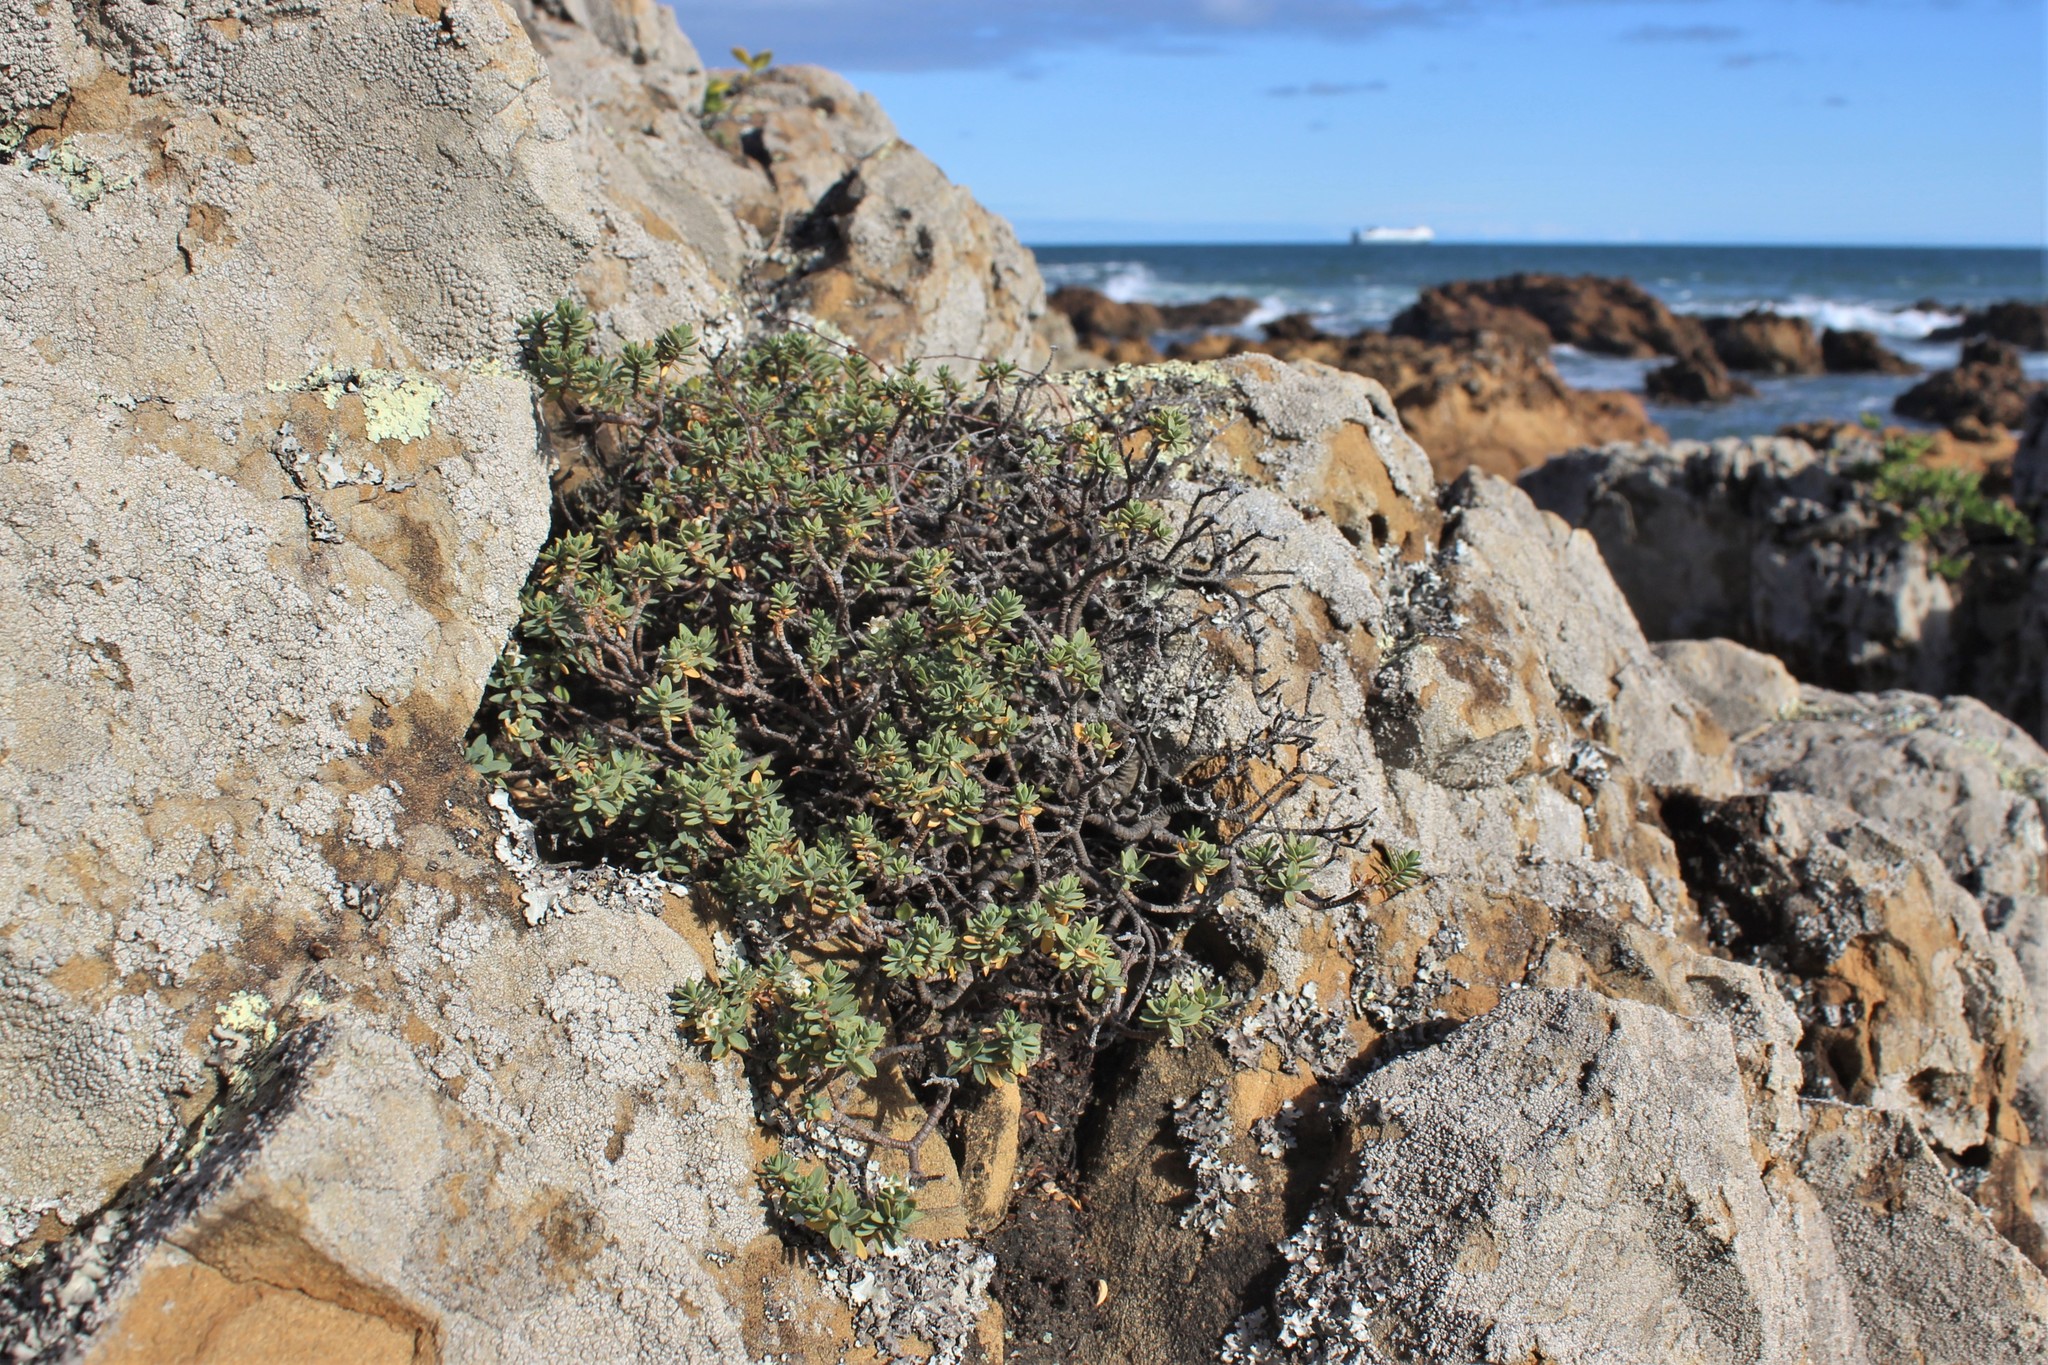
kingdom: Plantae
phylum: Tracheophyta
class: Magnoliopsida
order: Malvales
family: Thymelaeaceae
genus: Pimelea
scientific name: Pimelea prostrata
